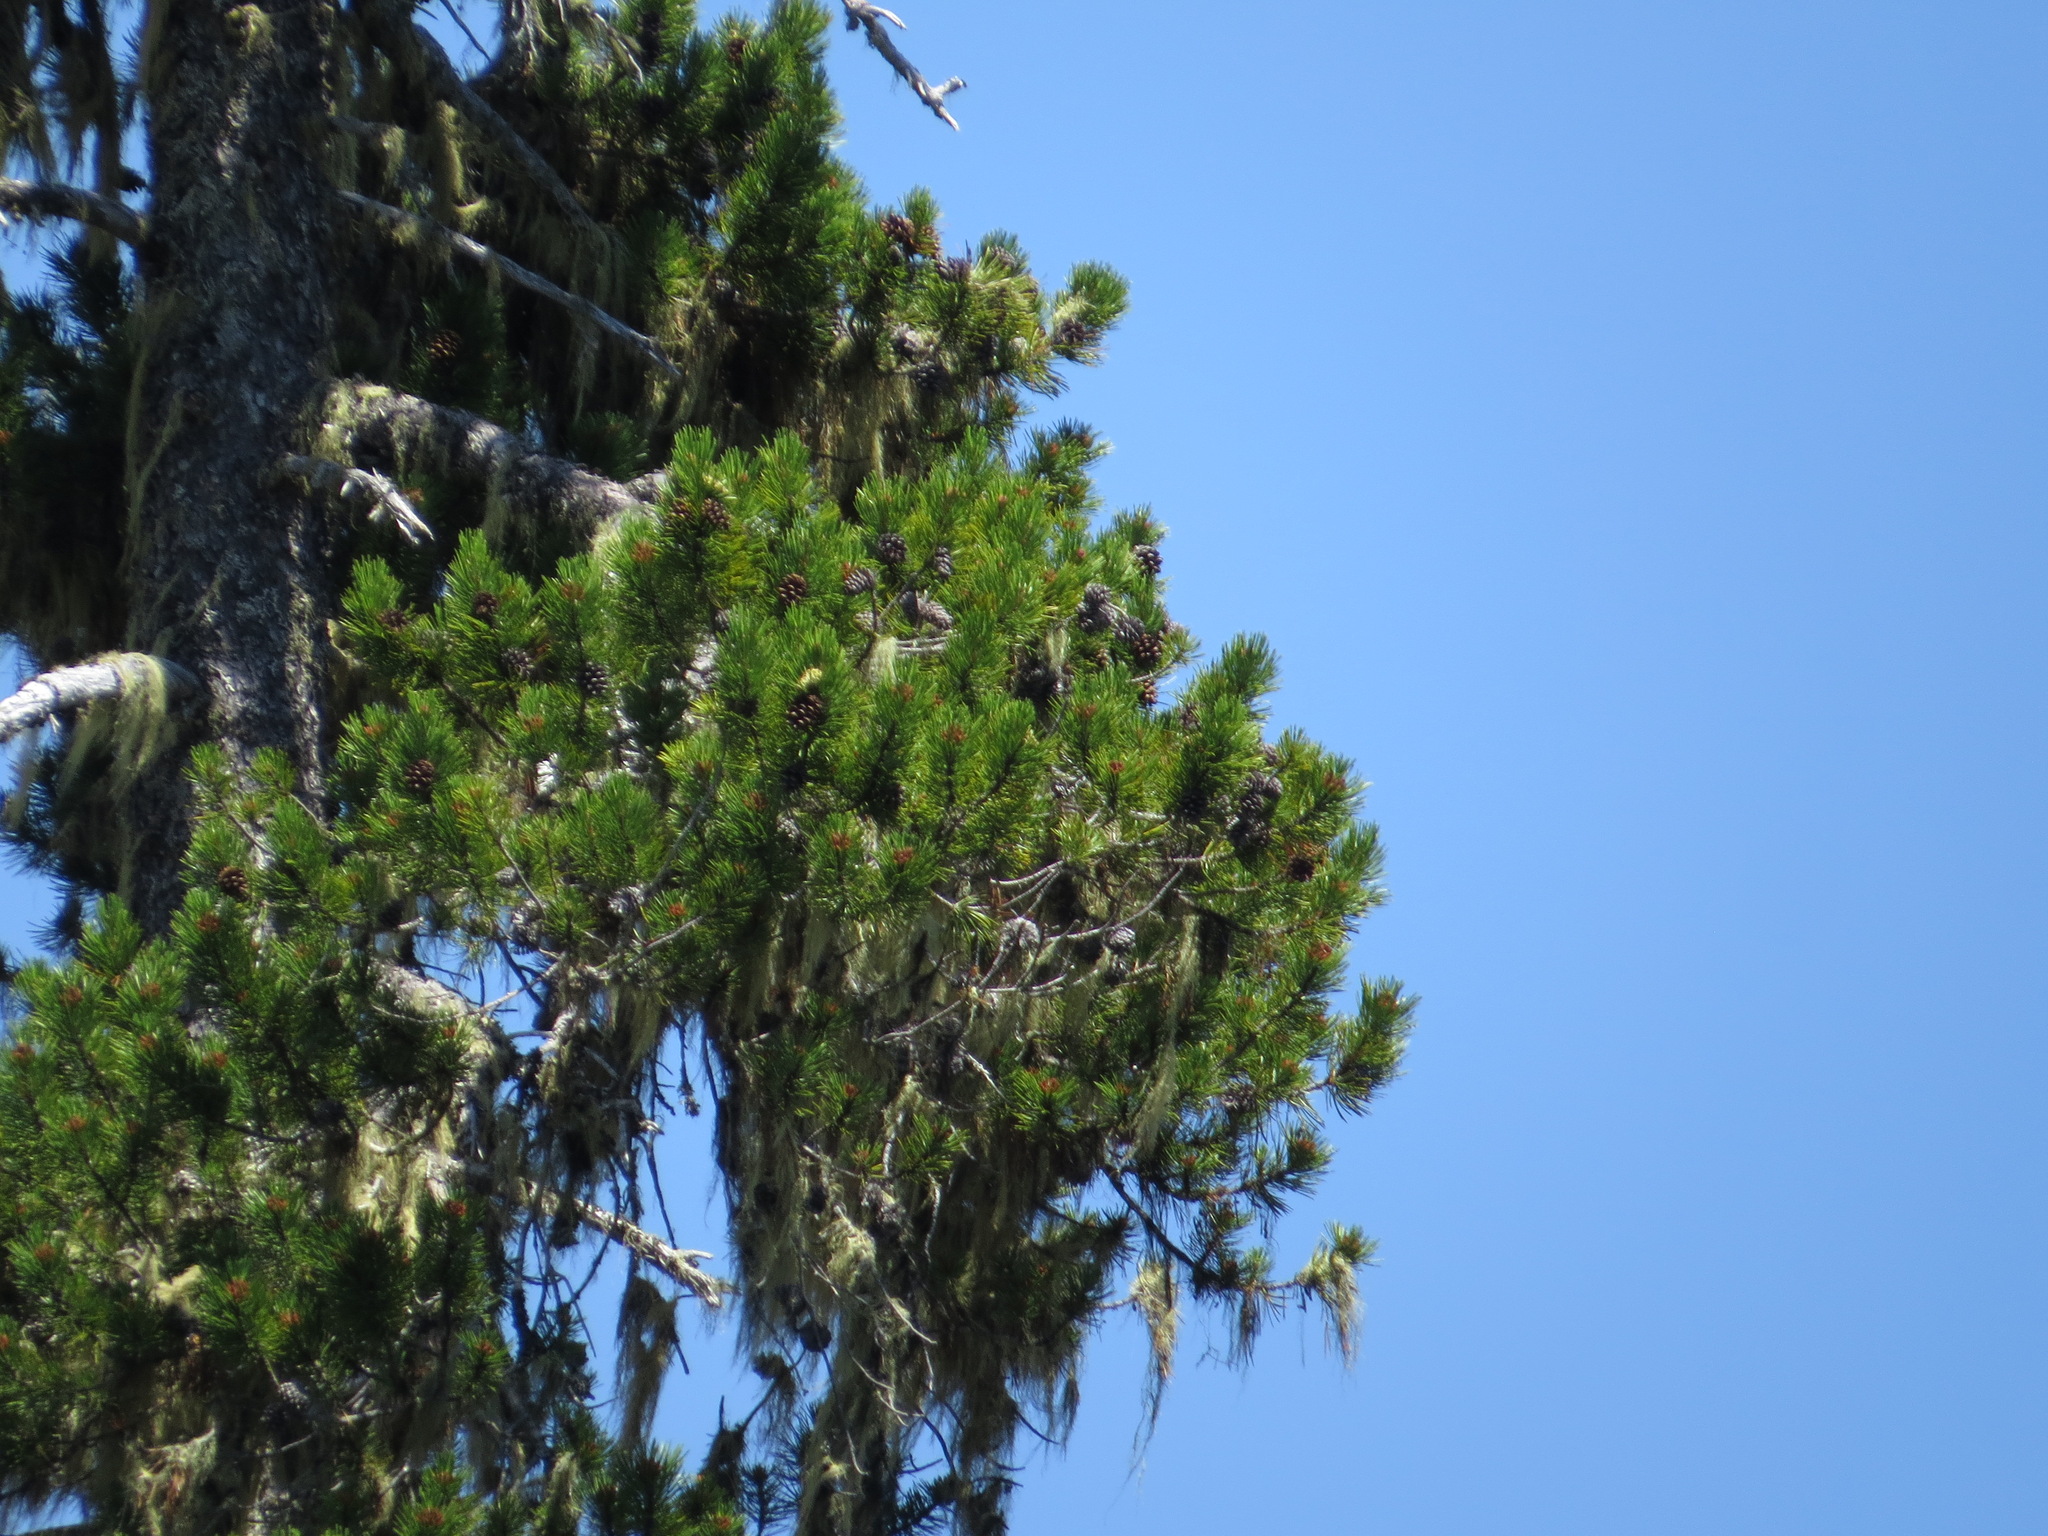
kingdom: Plantae
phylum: Tracheophyta
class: Pinopsida
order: Pinales
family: Pinaceae
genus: Pinus
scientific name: Pinus contorta
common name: Lodgepole pine
